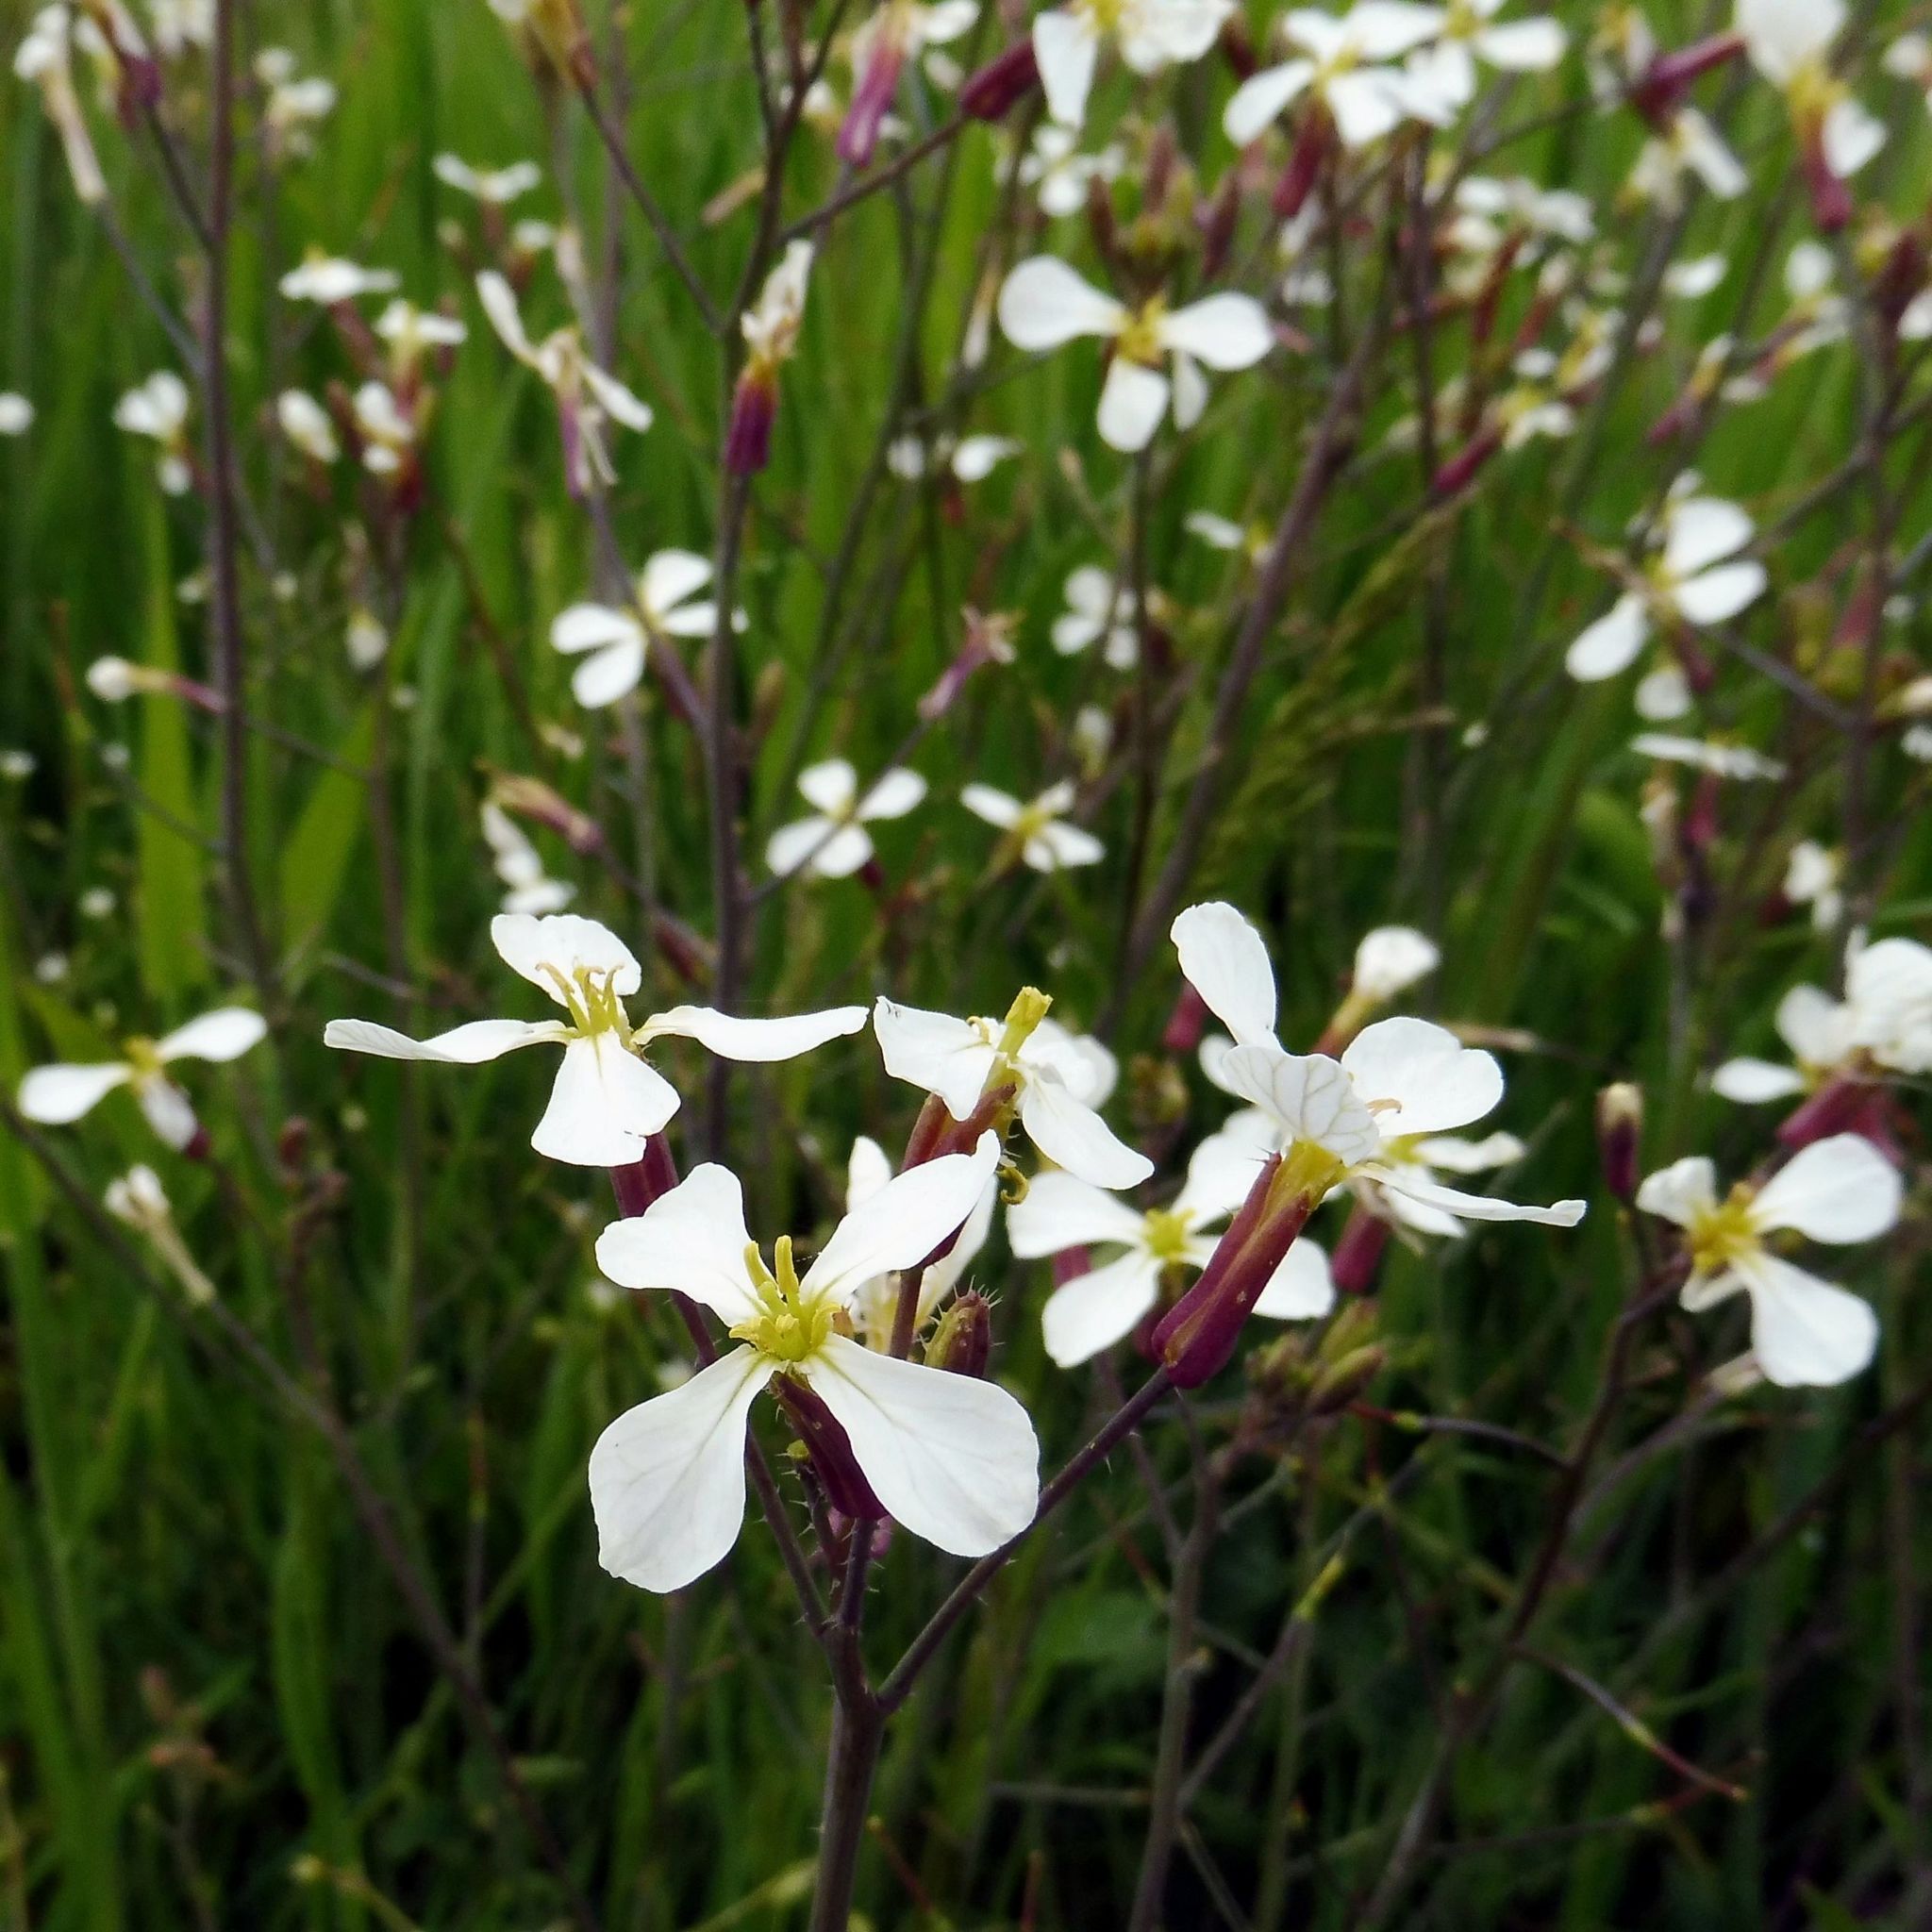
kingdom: Plantae
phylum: Tracheophyta
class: Magnoliopsida
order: Brassicales
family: Brassicaceae
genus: Raphanus
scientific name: Raphanus raphanistrum
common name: Wild radish
